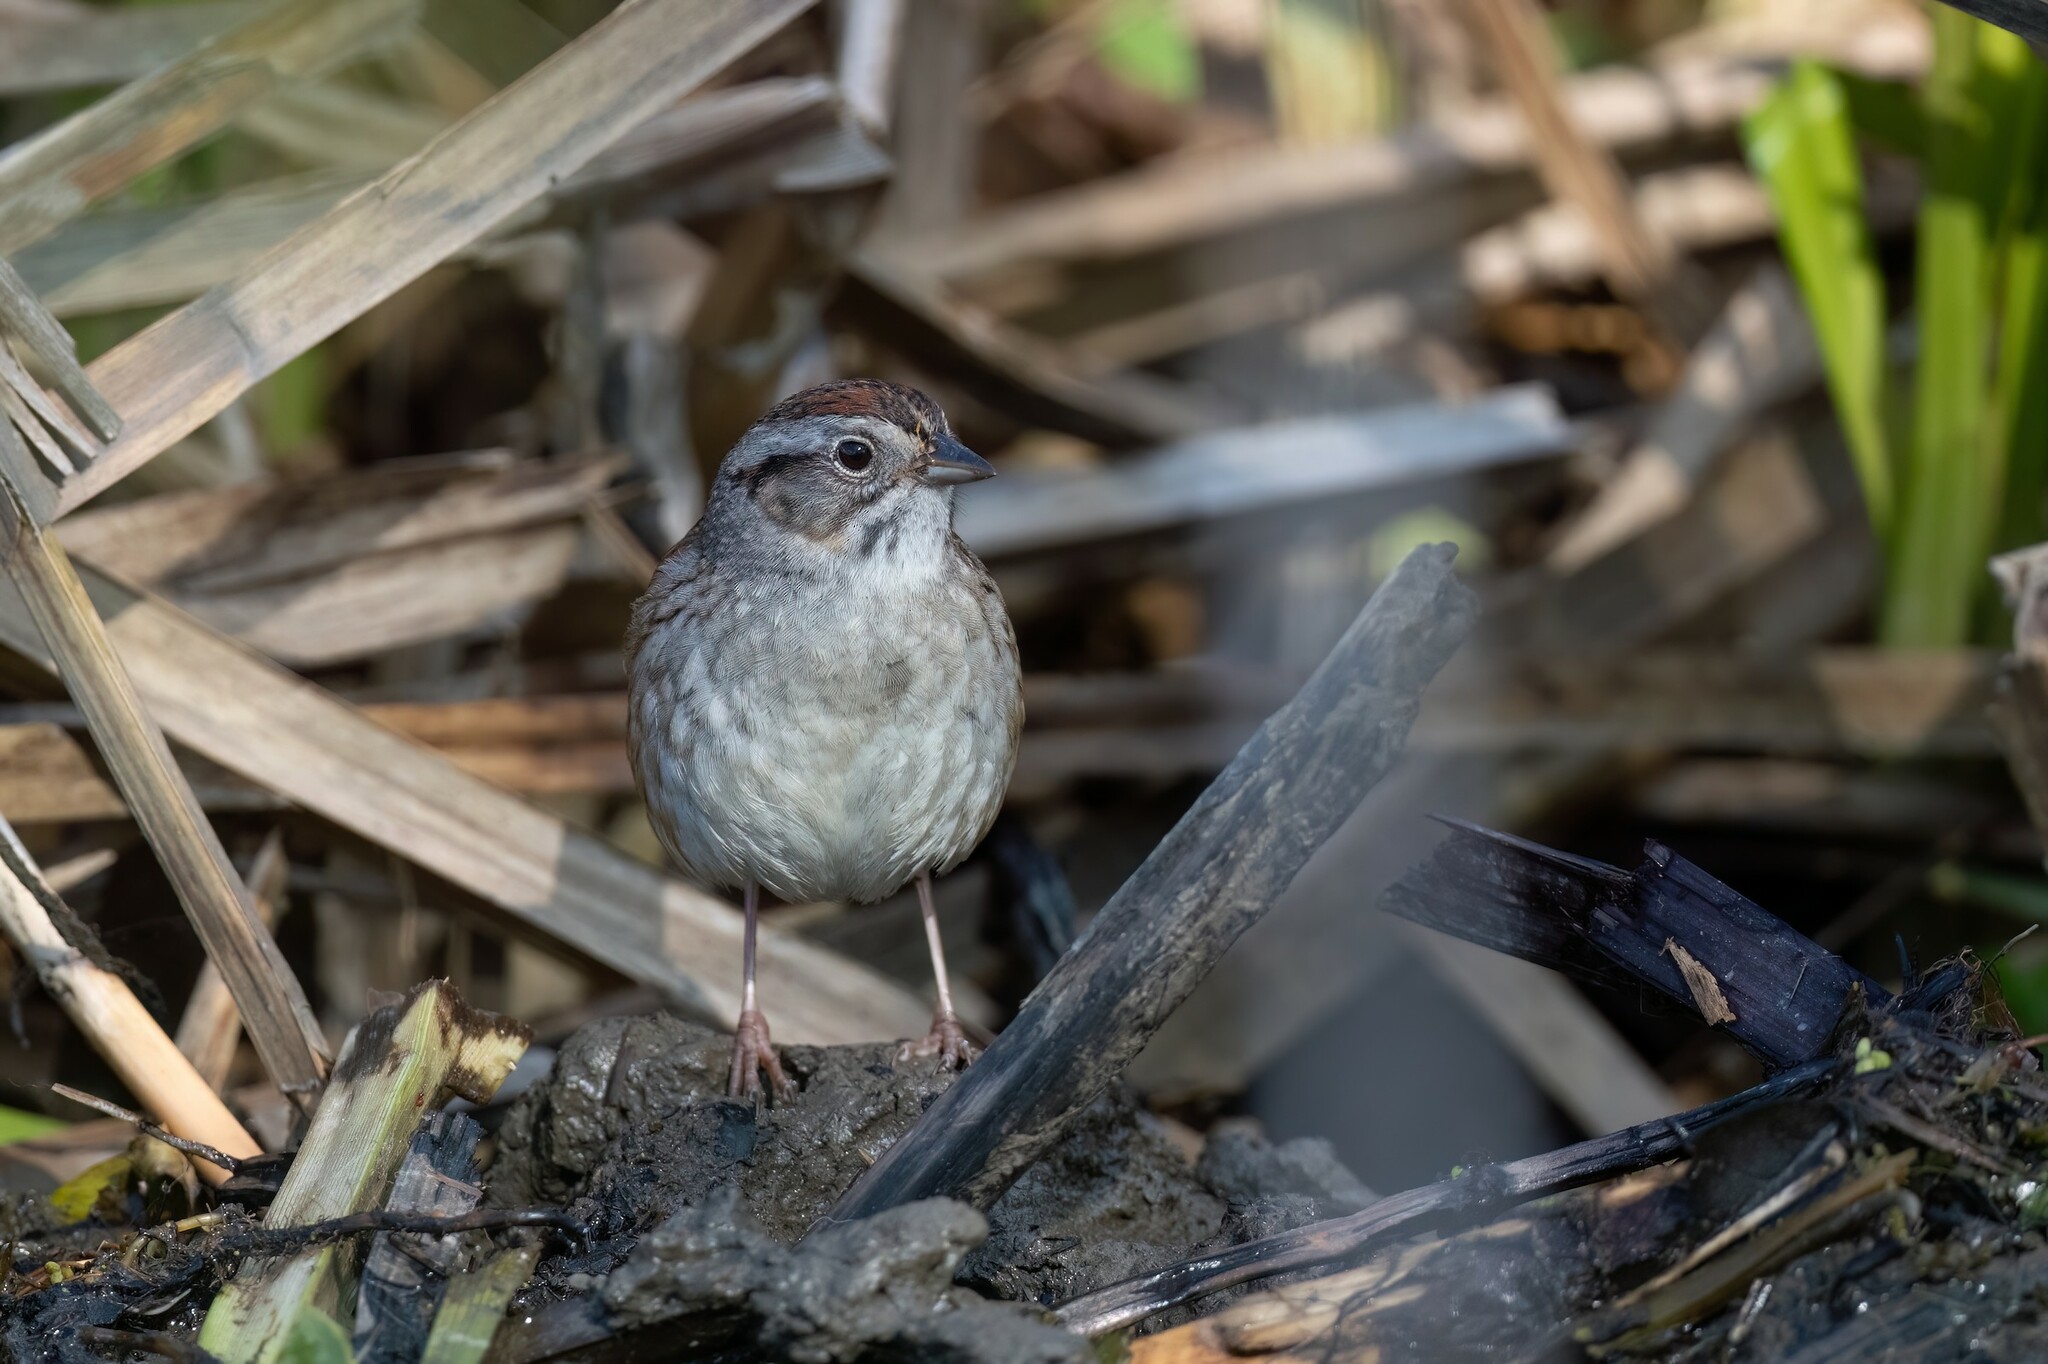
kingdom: Animalia
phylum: Chordata
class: Aves
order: Passeriformes
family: Passerellidae
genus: Melospiza
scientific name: Melospiza georgiana
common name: Swamp sparrow
